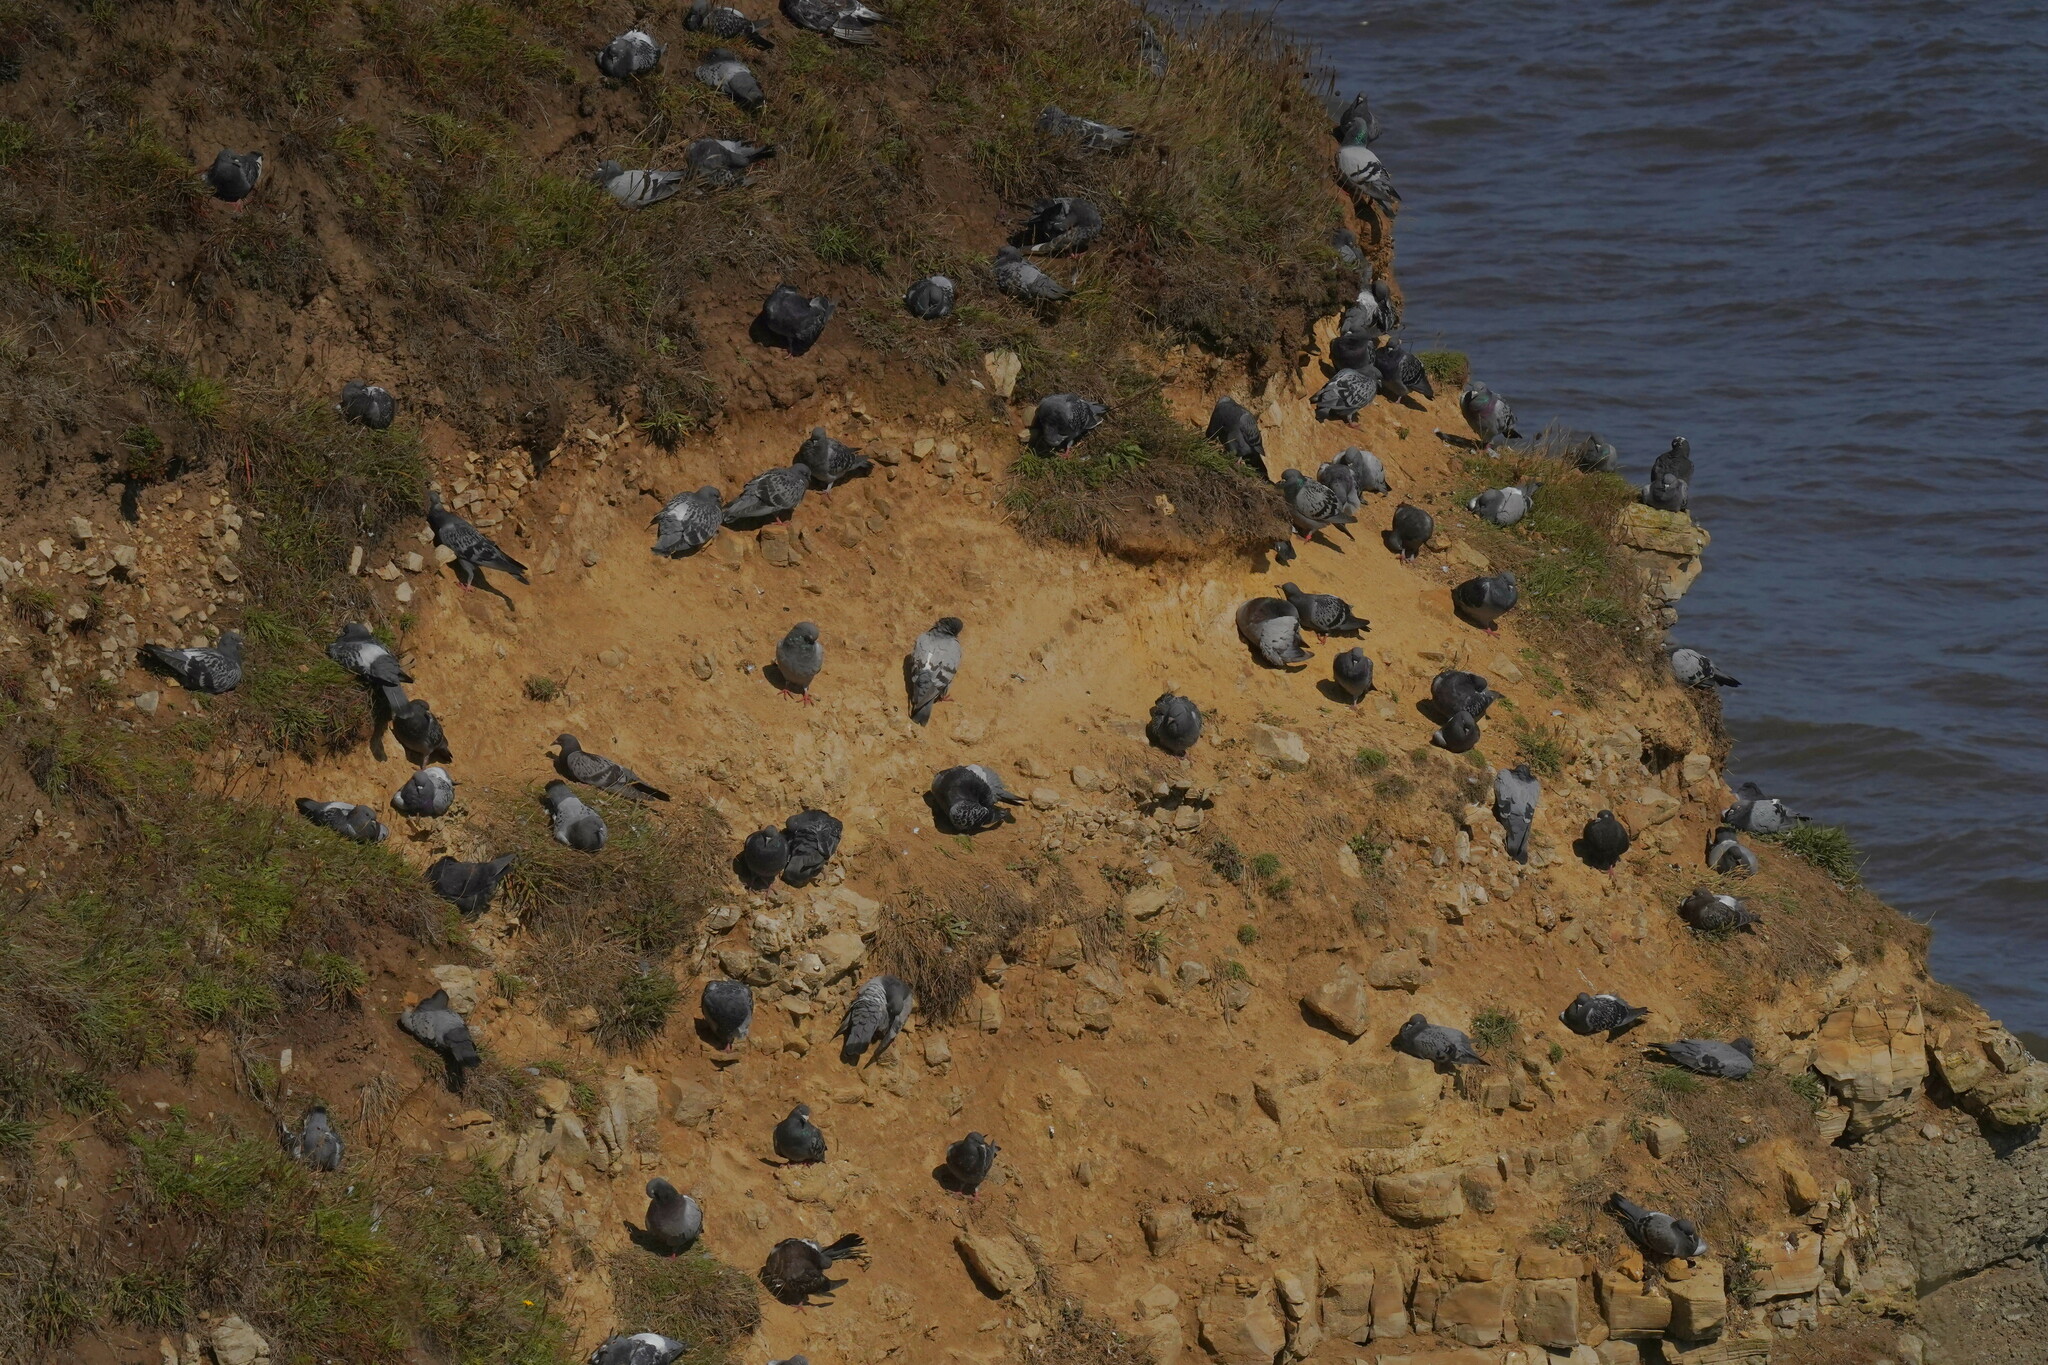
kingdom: Animalia
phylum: Chordata
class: Aves
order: Columbiformes
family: Columbidae
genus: Columba
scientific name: Columba livia
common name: Rock pigeon
